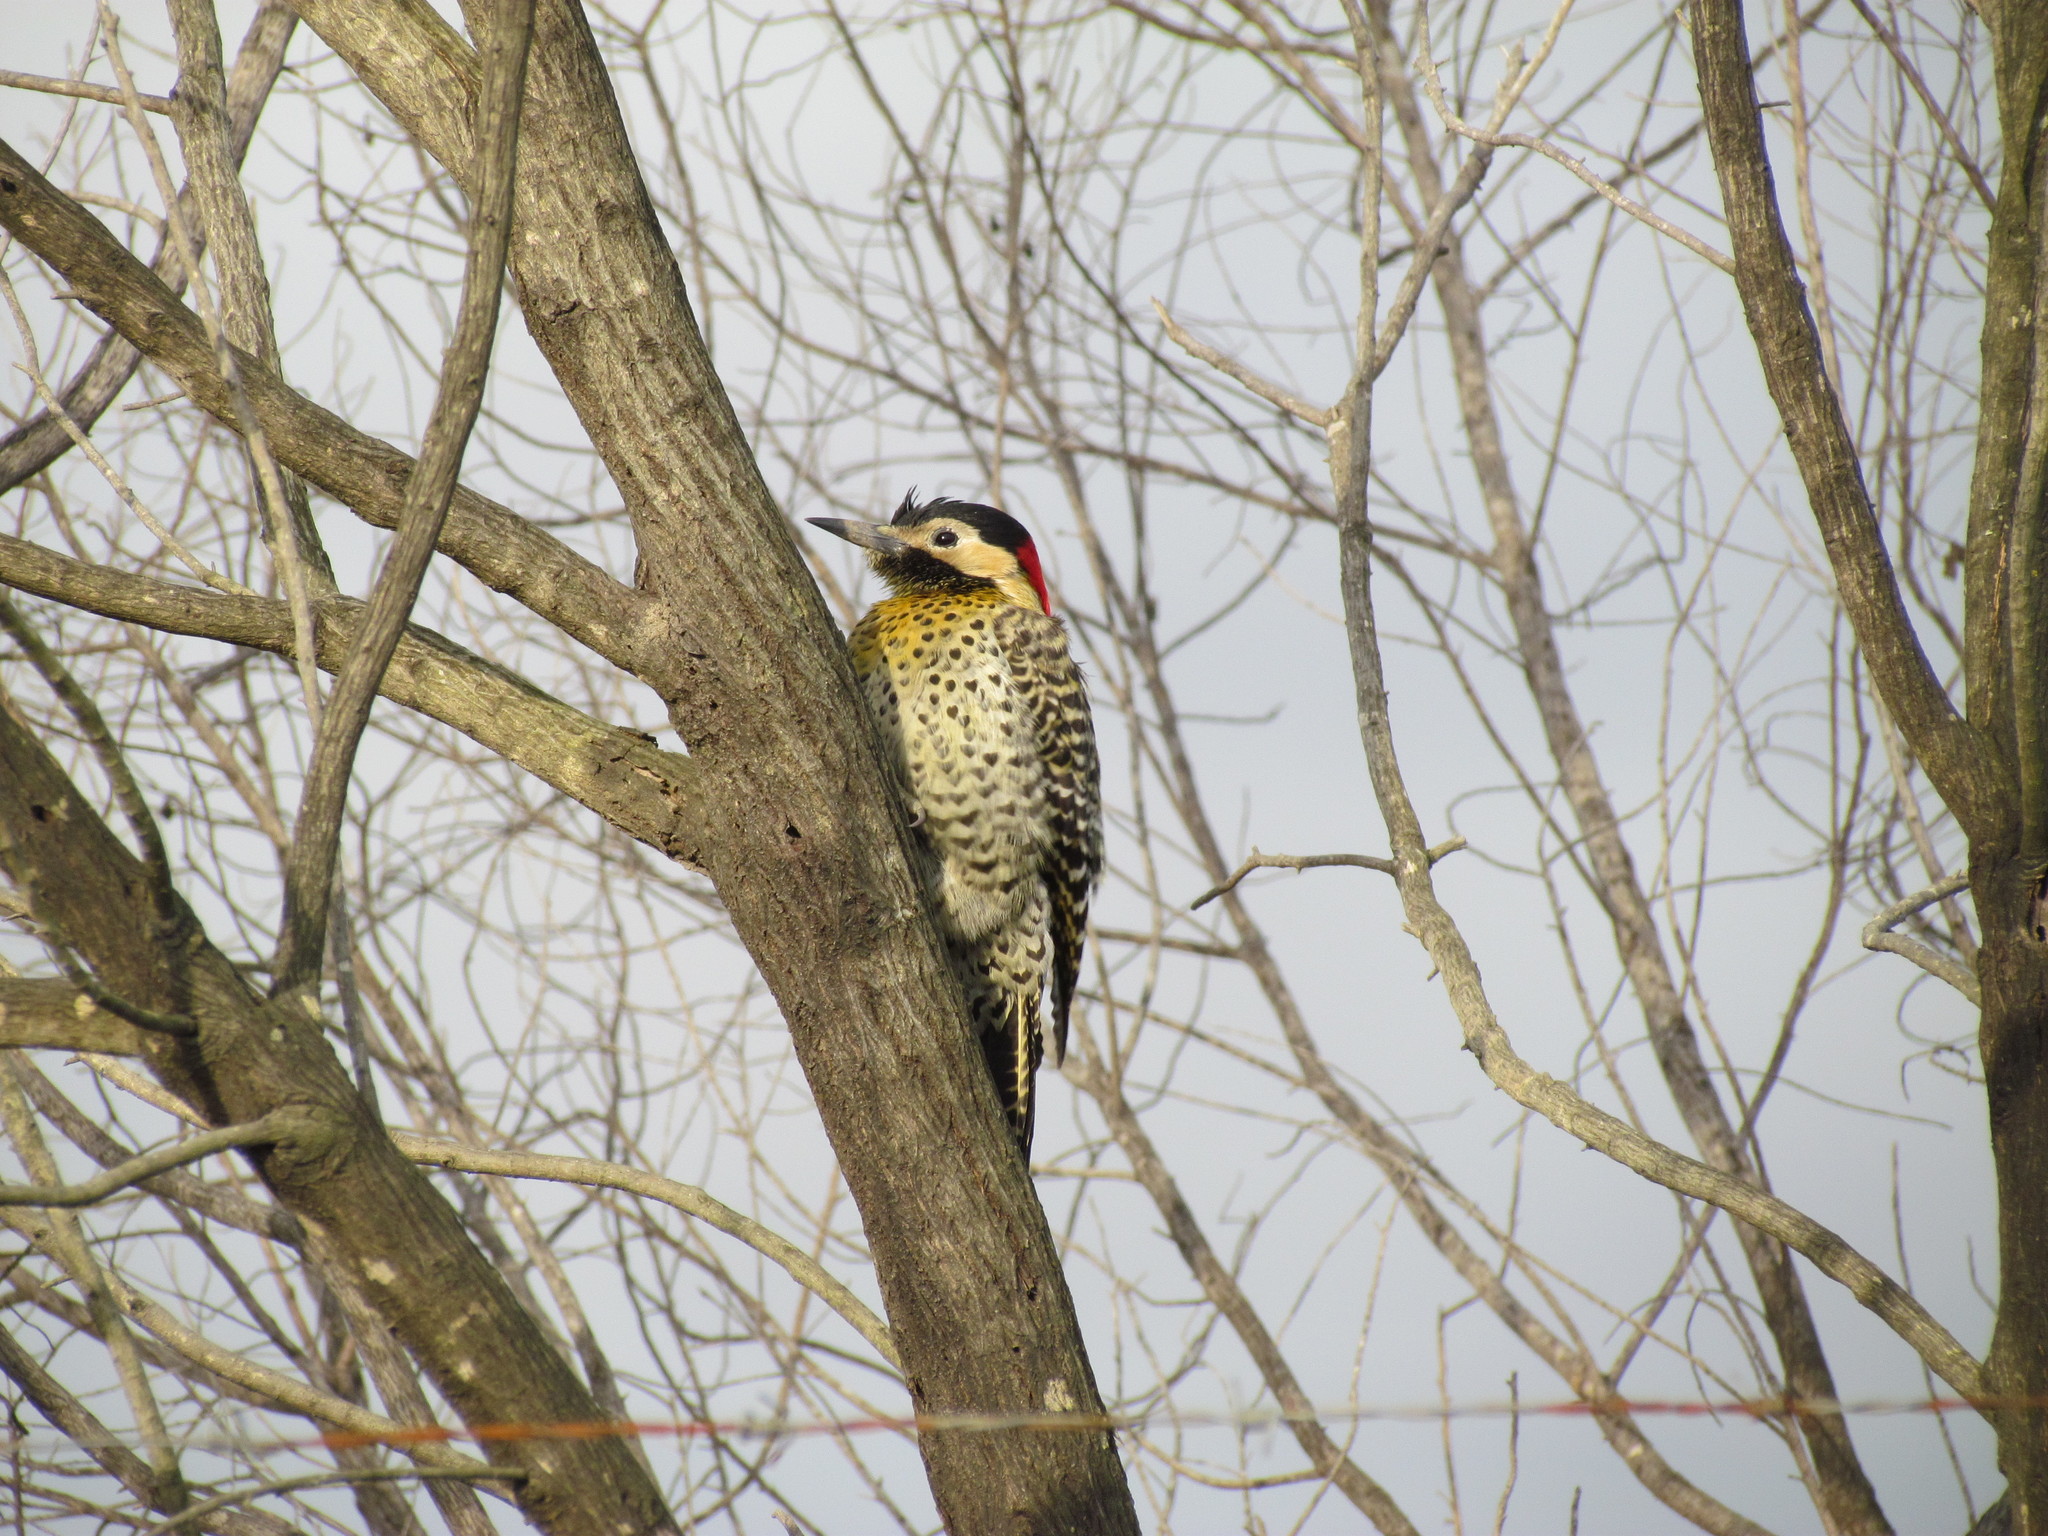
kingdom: Animalia
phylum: Chordata
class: Aves
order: Piciformes
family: Picidae
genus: Colaptes
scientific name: Colaptes melanochloros
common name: Green-barred woodpecker
